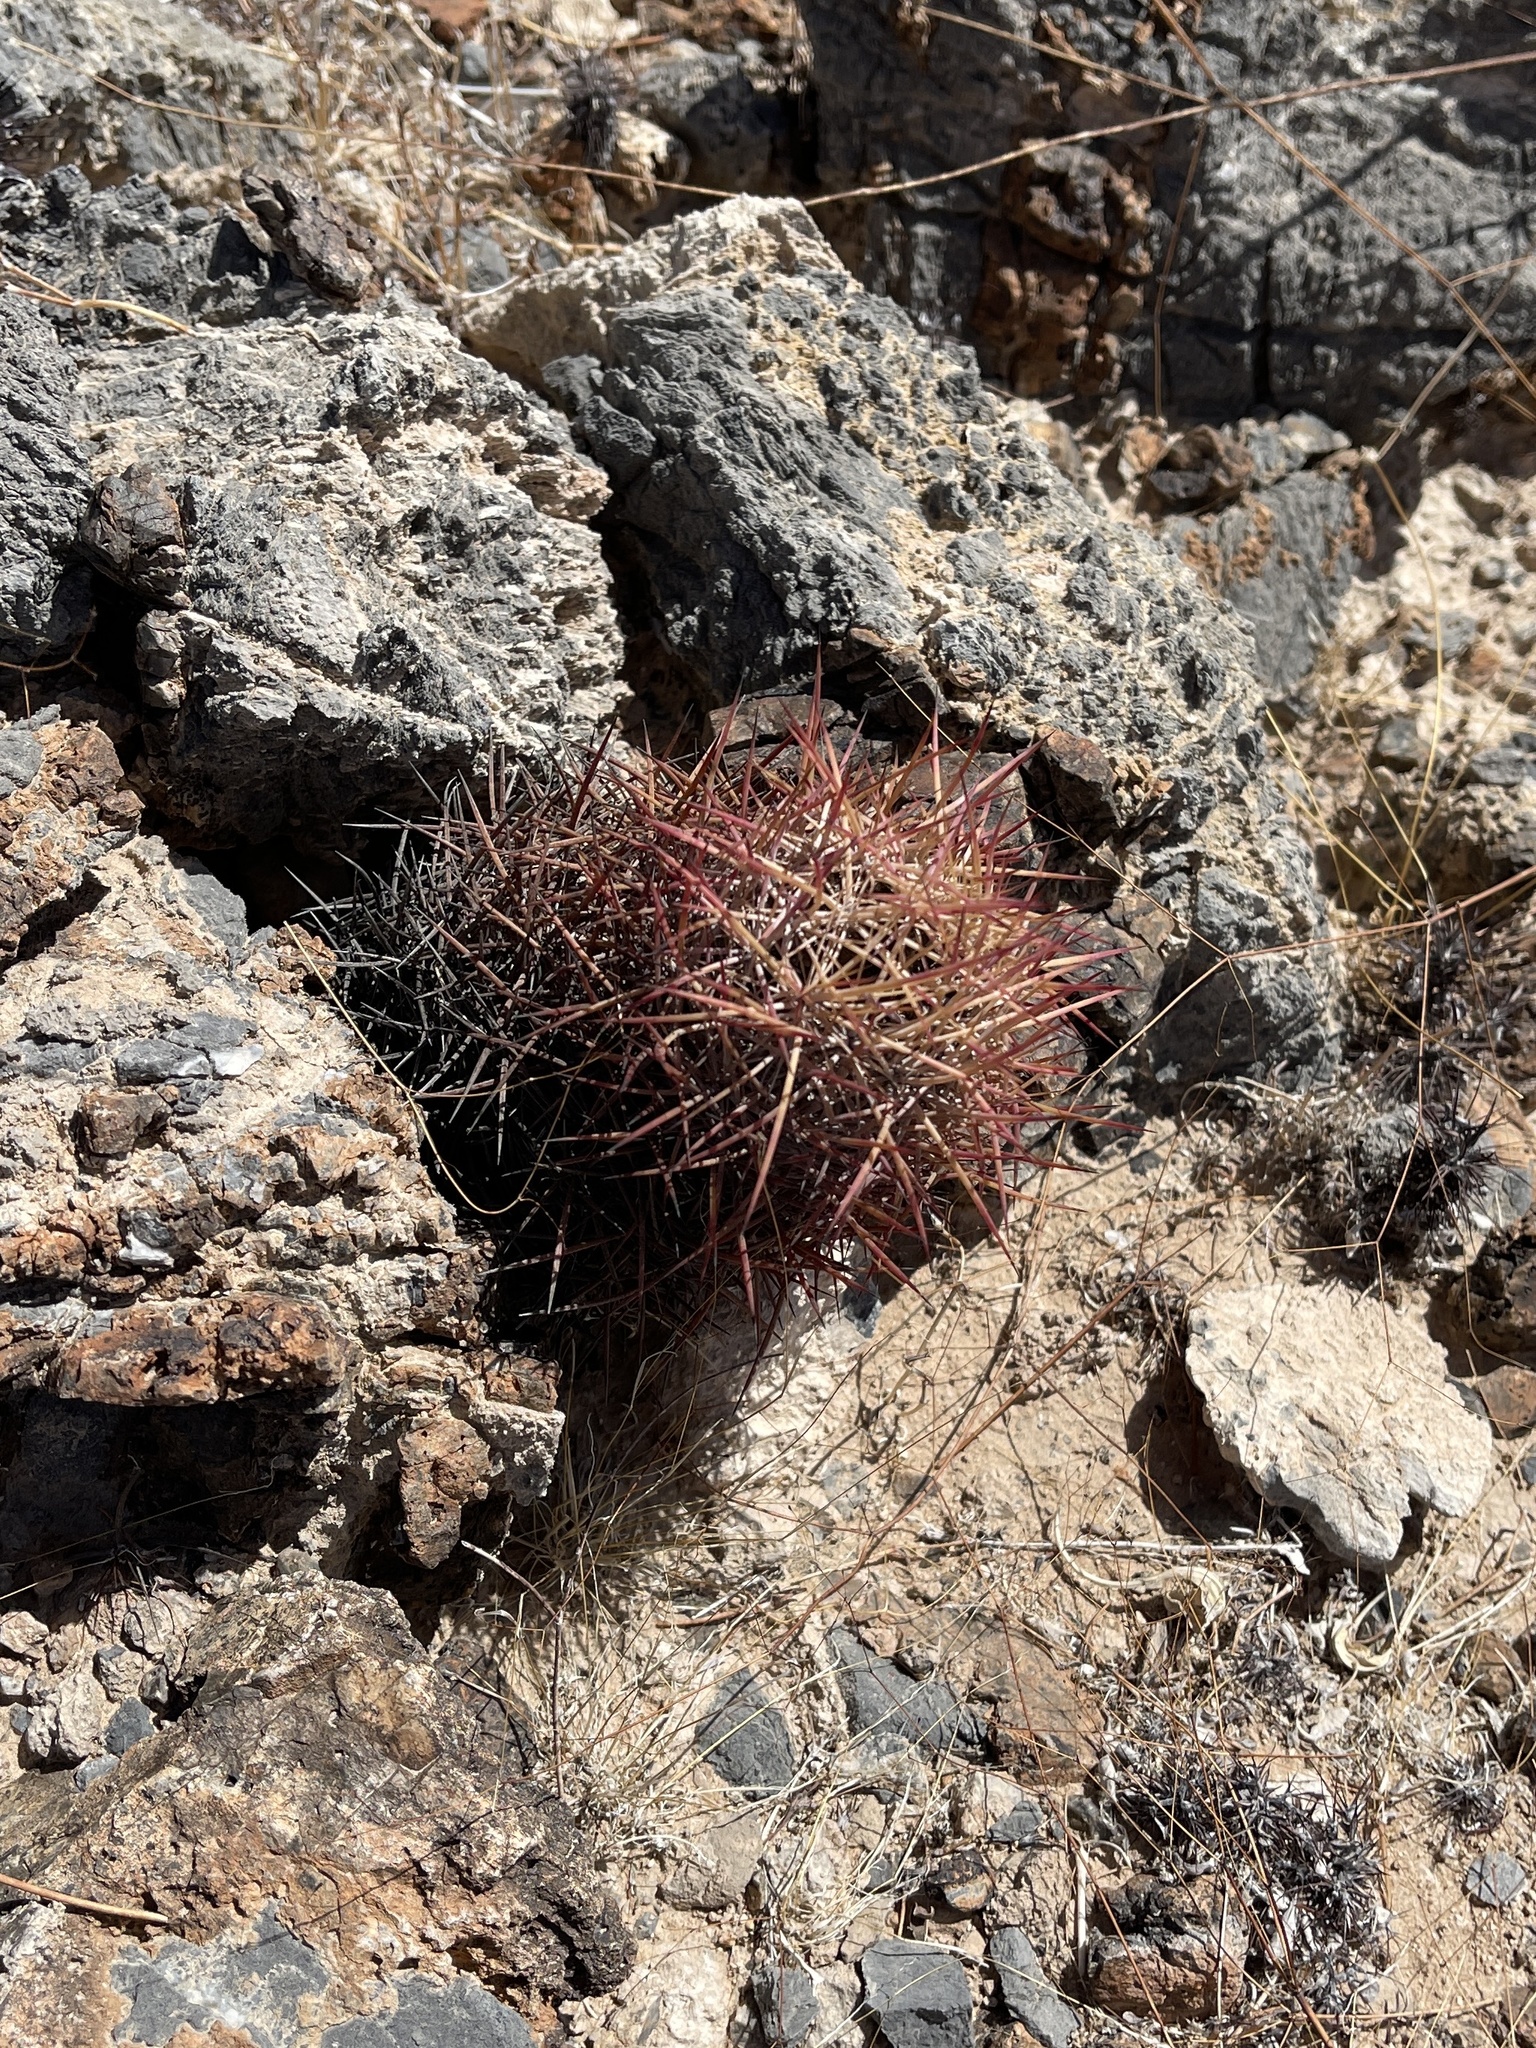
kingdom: Plantae
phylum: Tracheophyta
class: Magnoliopsida
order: Caryophyllales
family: Cactaceae
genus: Sclerocactus
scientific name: Sclerocactus johnsonii
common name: Eight-spine fishhook cactus
